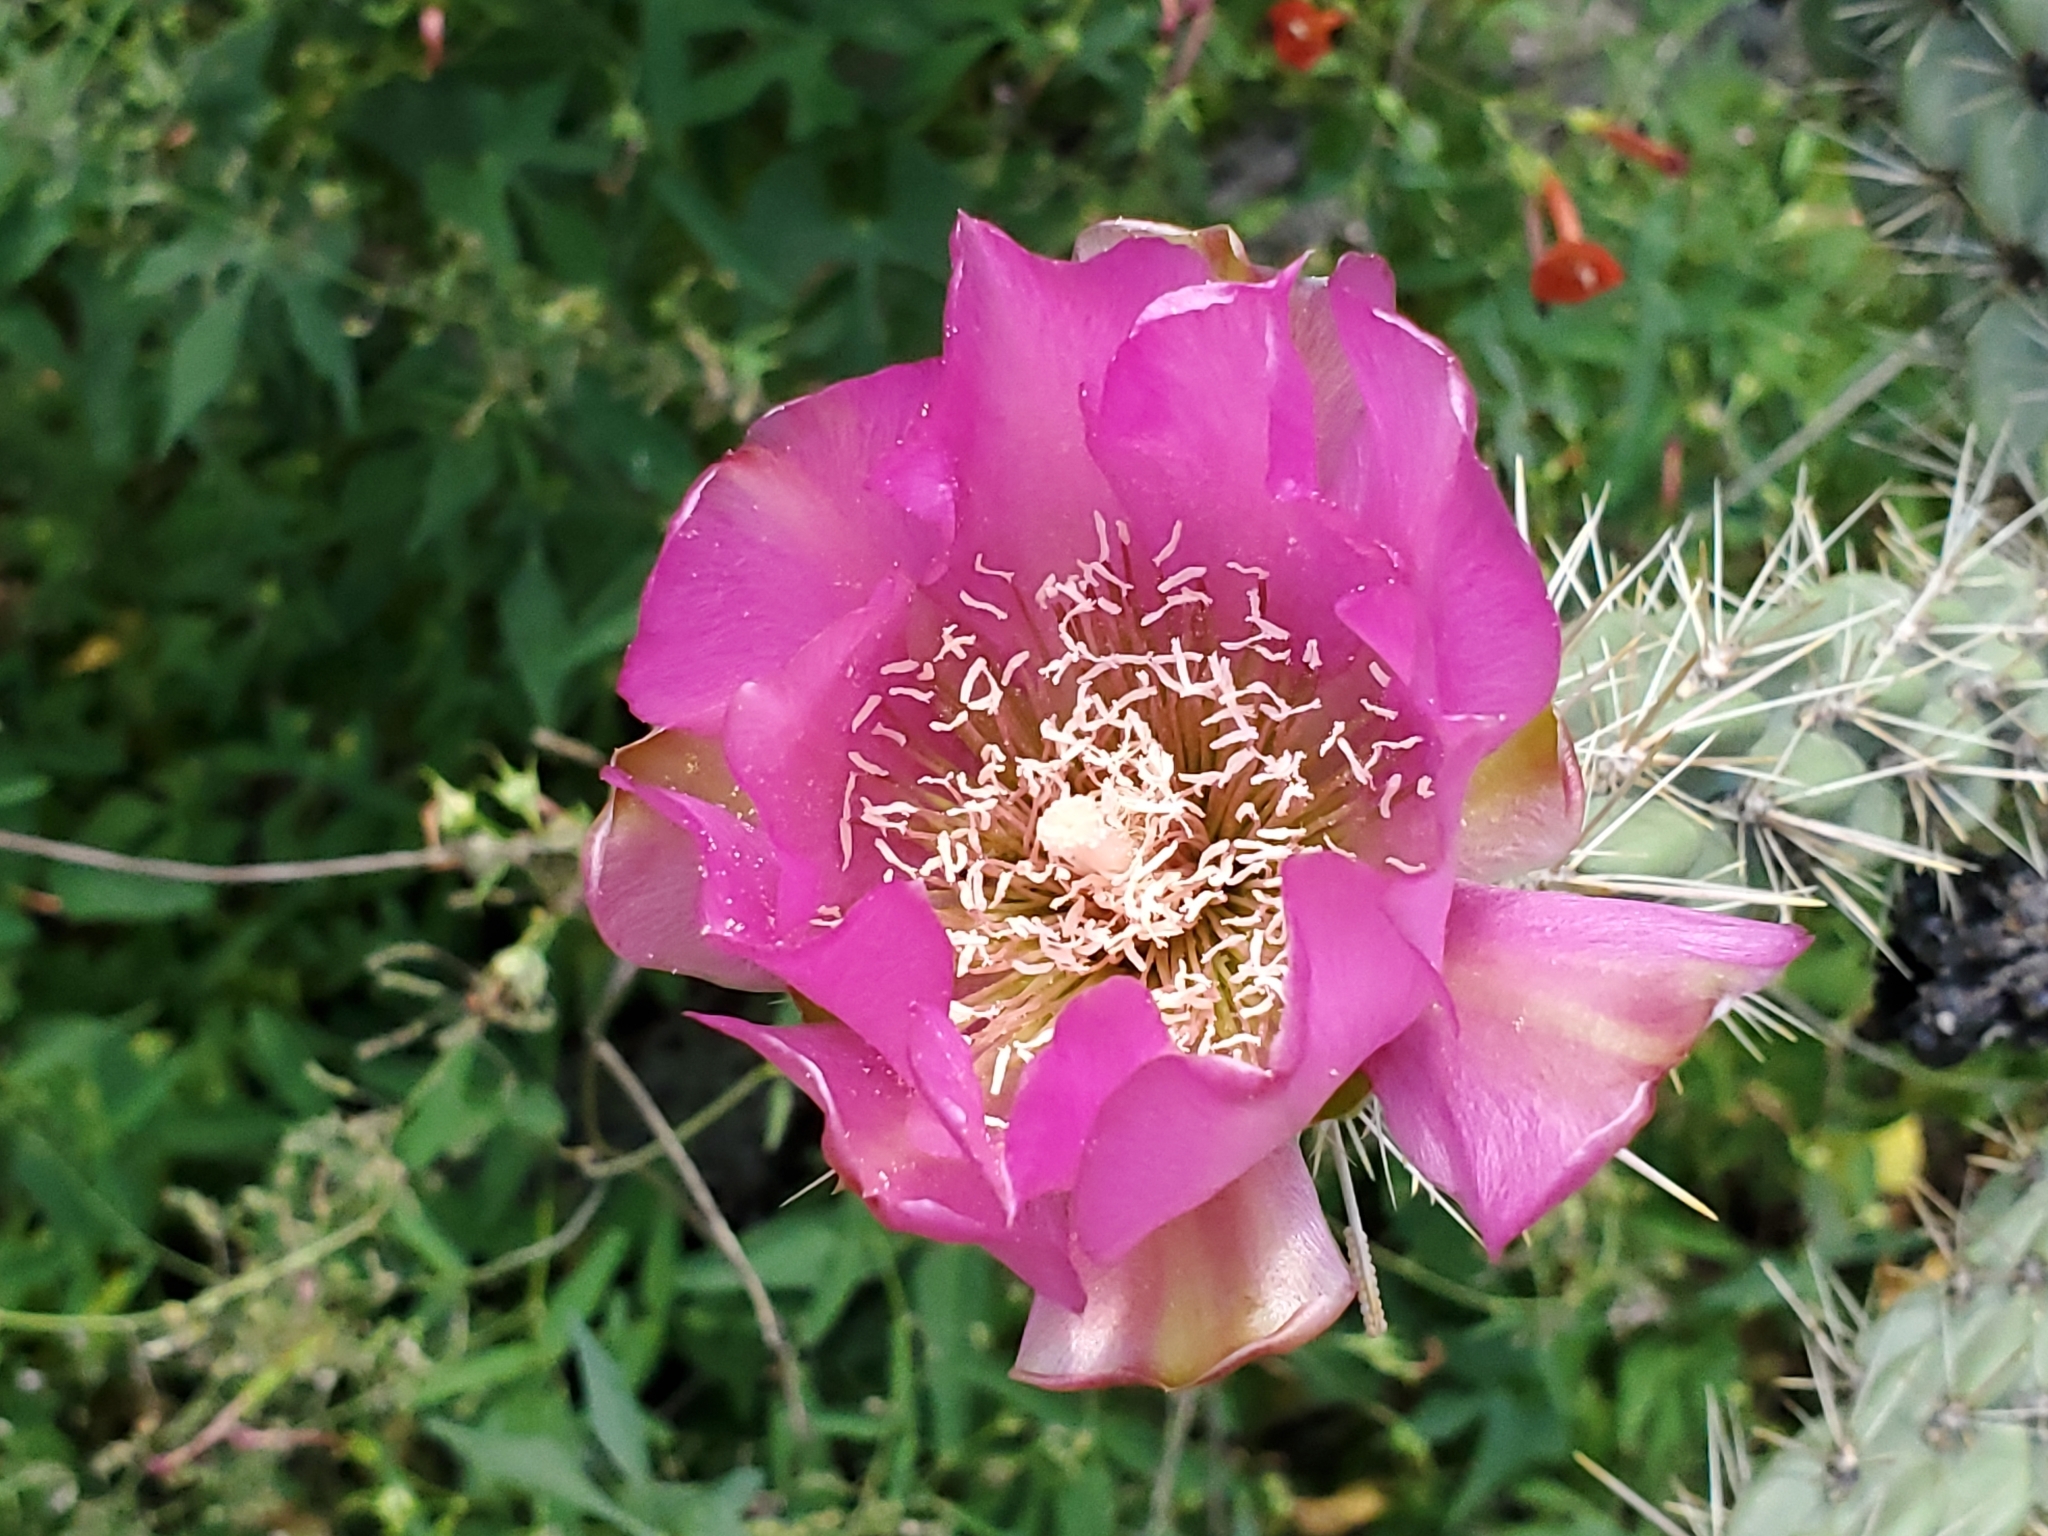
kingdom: Plantae
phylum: Tracheophyta
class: Magnoliopsida
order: Caryophyllales
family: Cactaceae
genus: Cylindropuntia
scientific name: Cylindropuntia imbricata
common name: Candelabrum cactus
